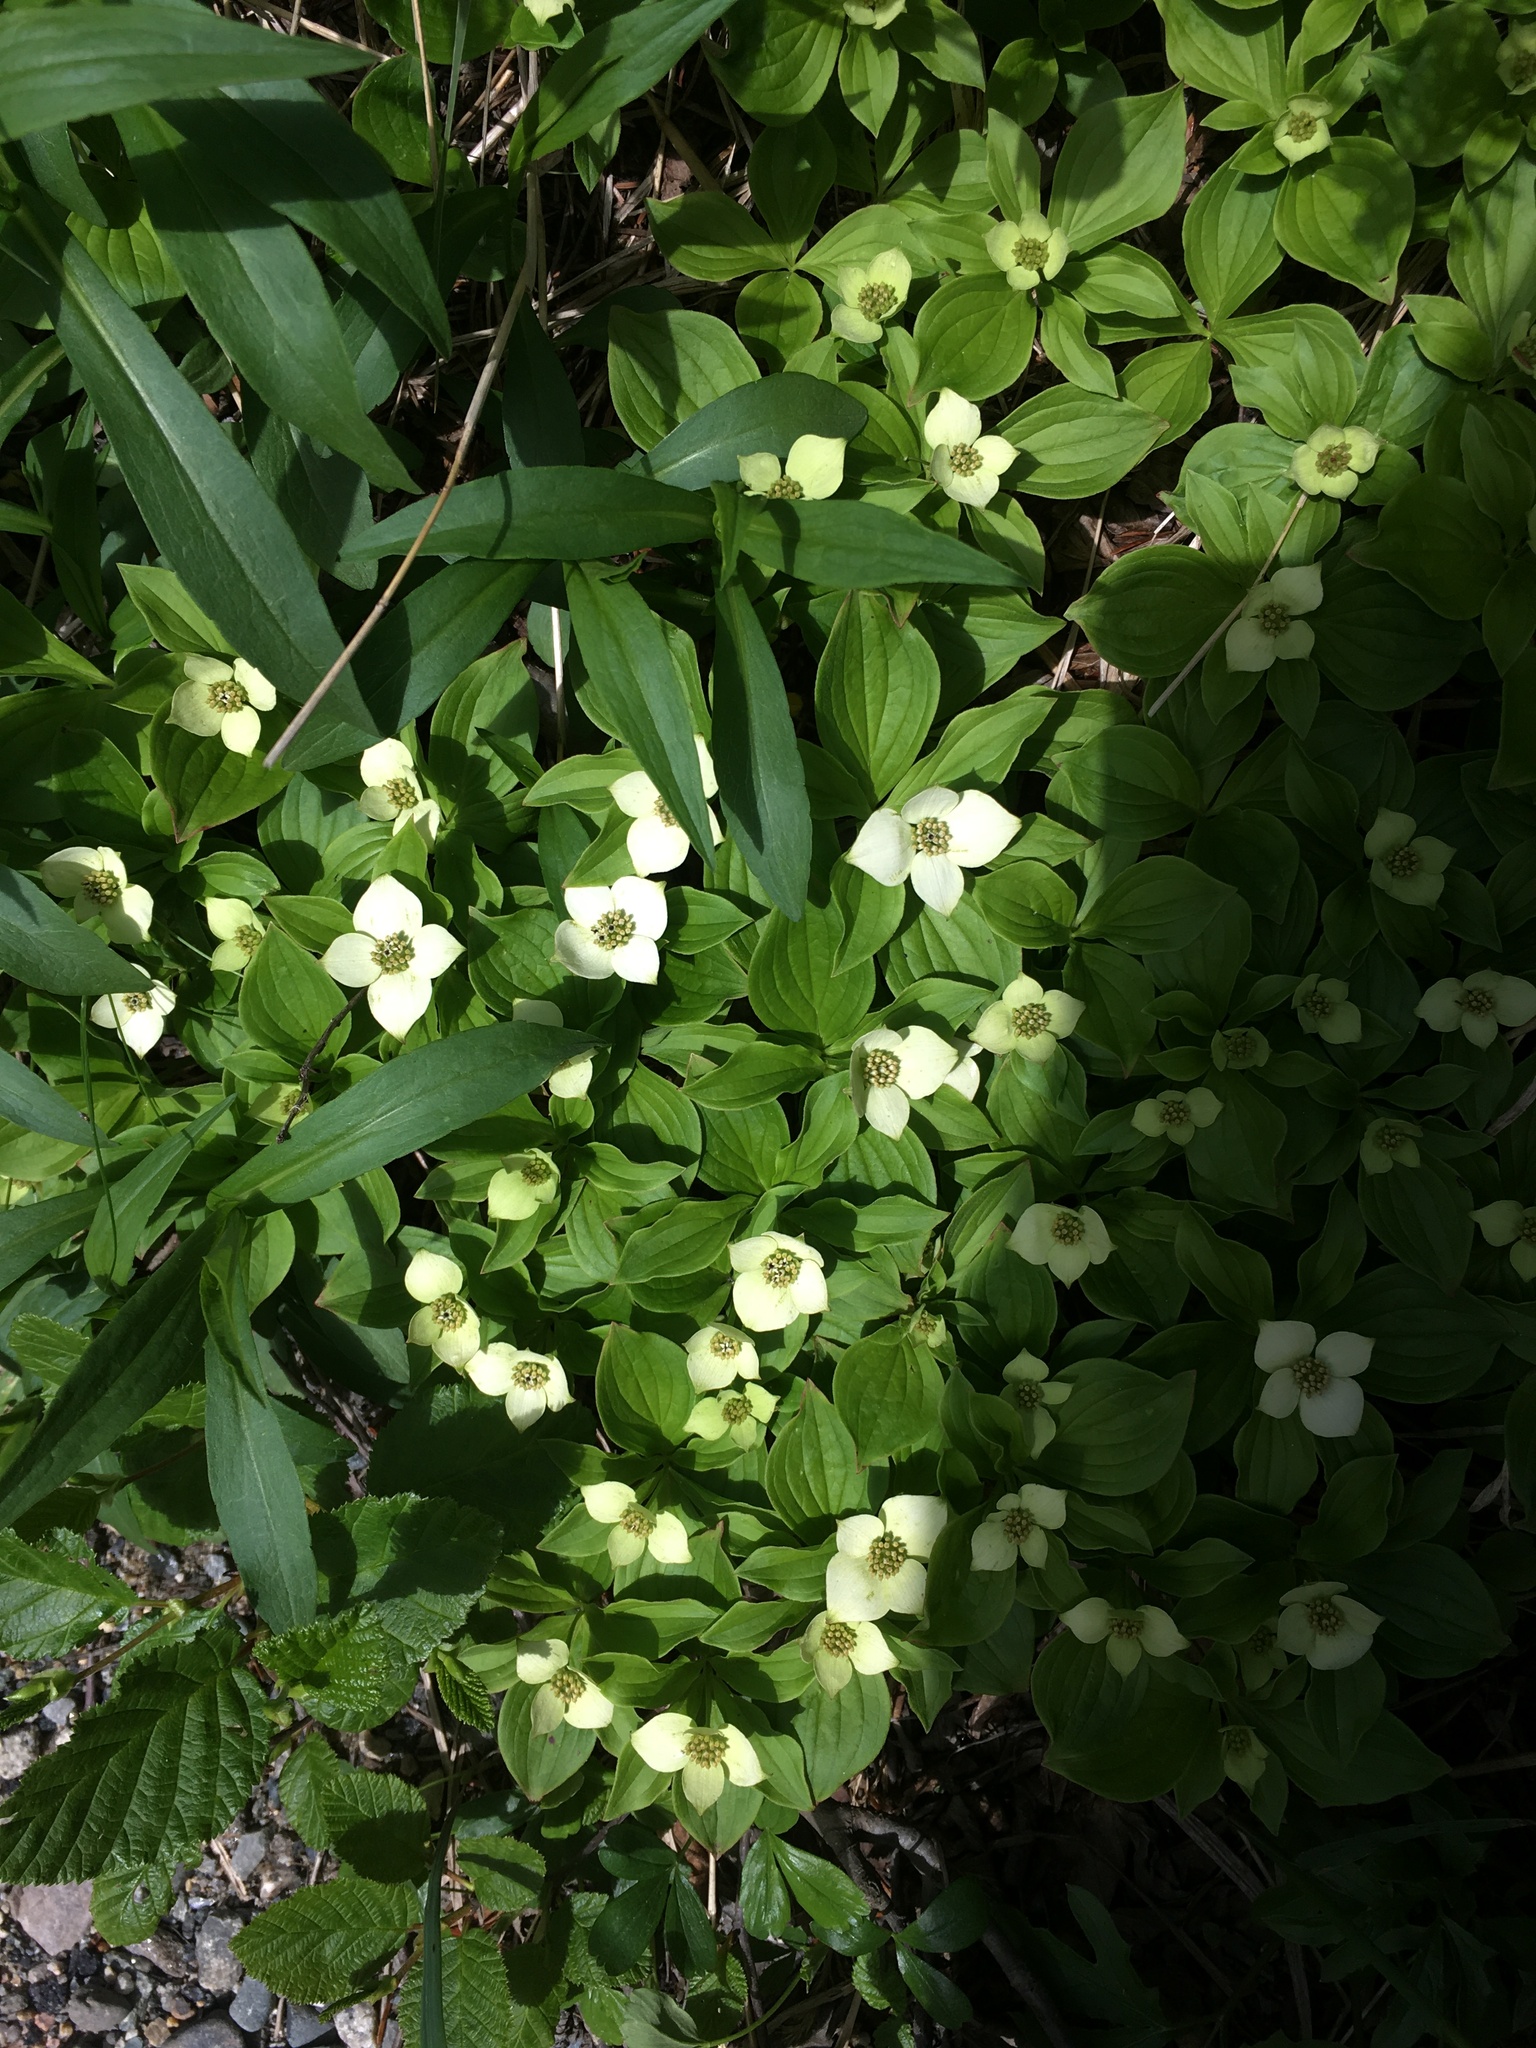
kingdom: Plantae
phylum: Tracheophyta
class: Magnoliopsida
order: Cornales
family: Cornaceae
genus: Cornus
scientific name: Cornus canadensis
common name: Creeping dogwood
